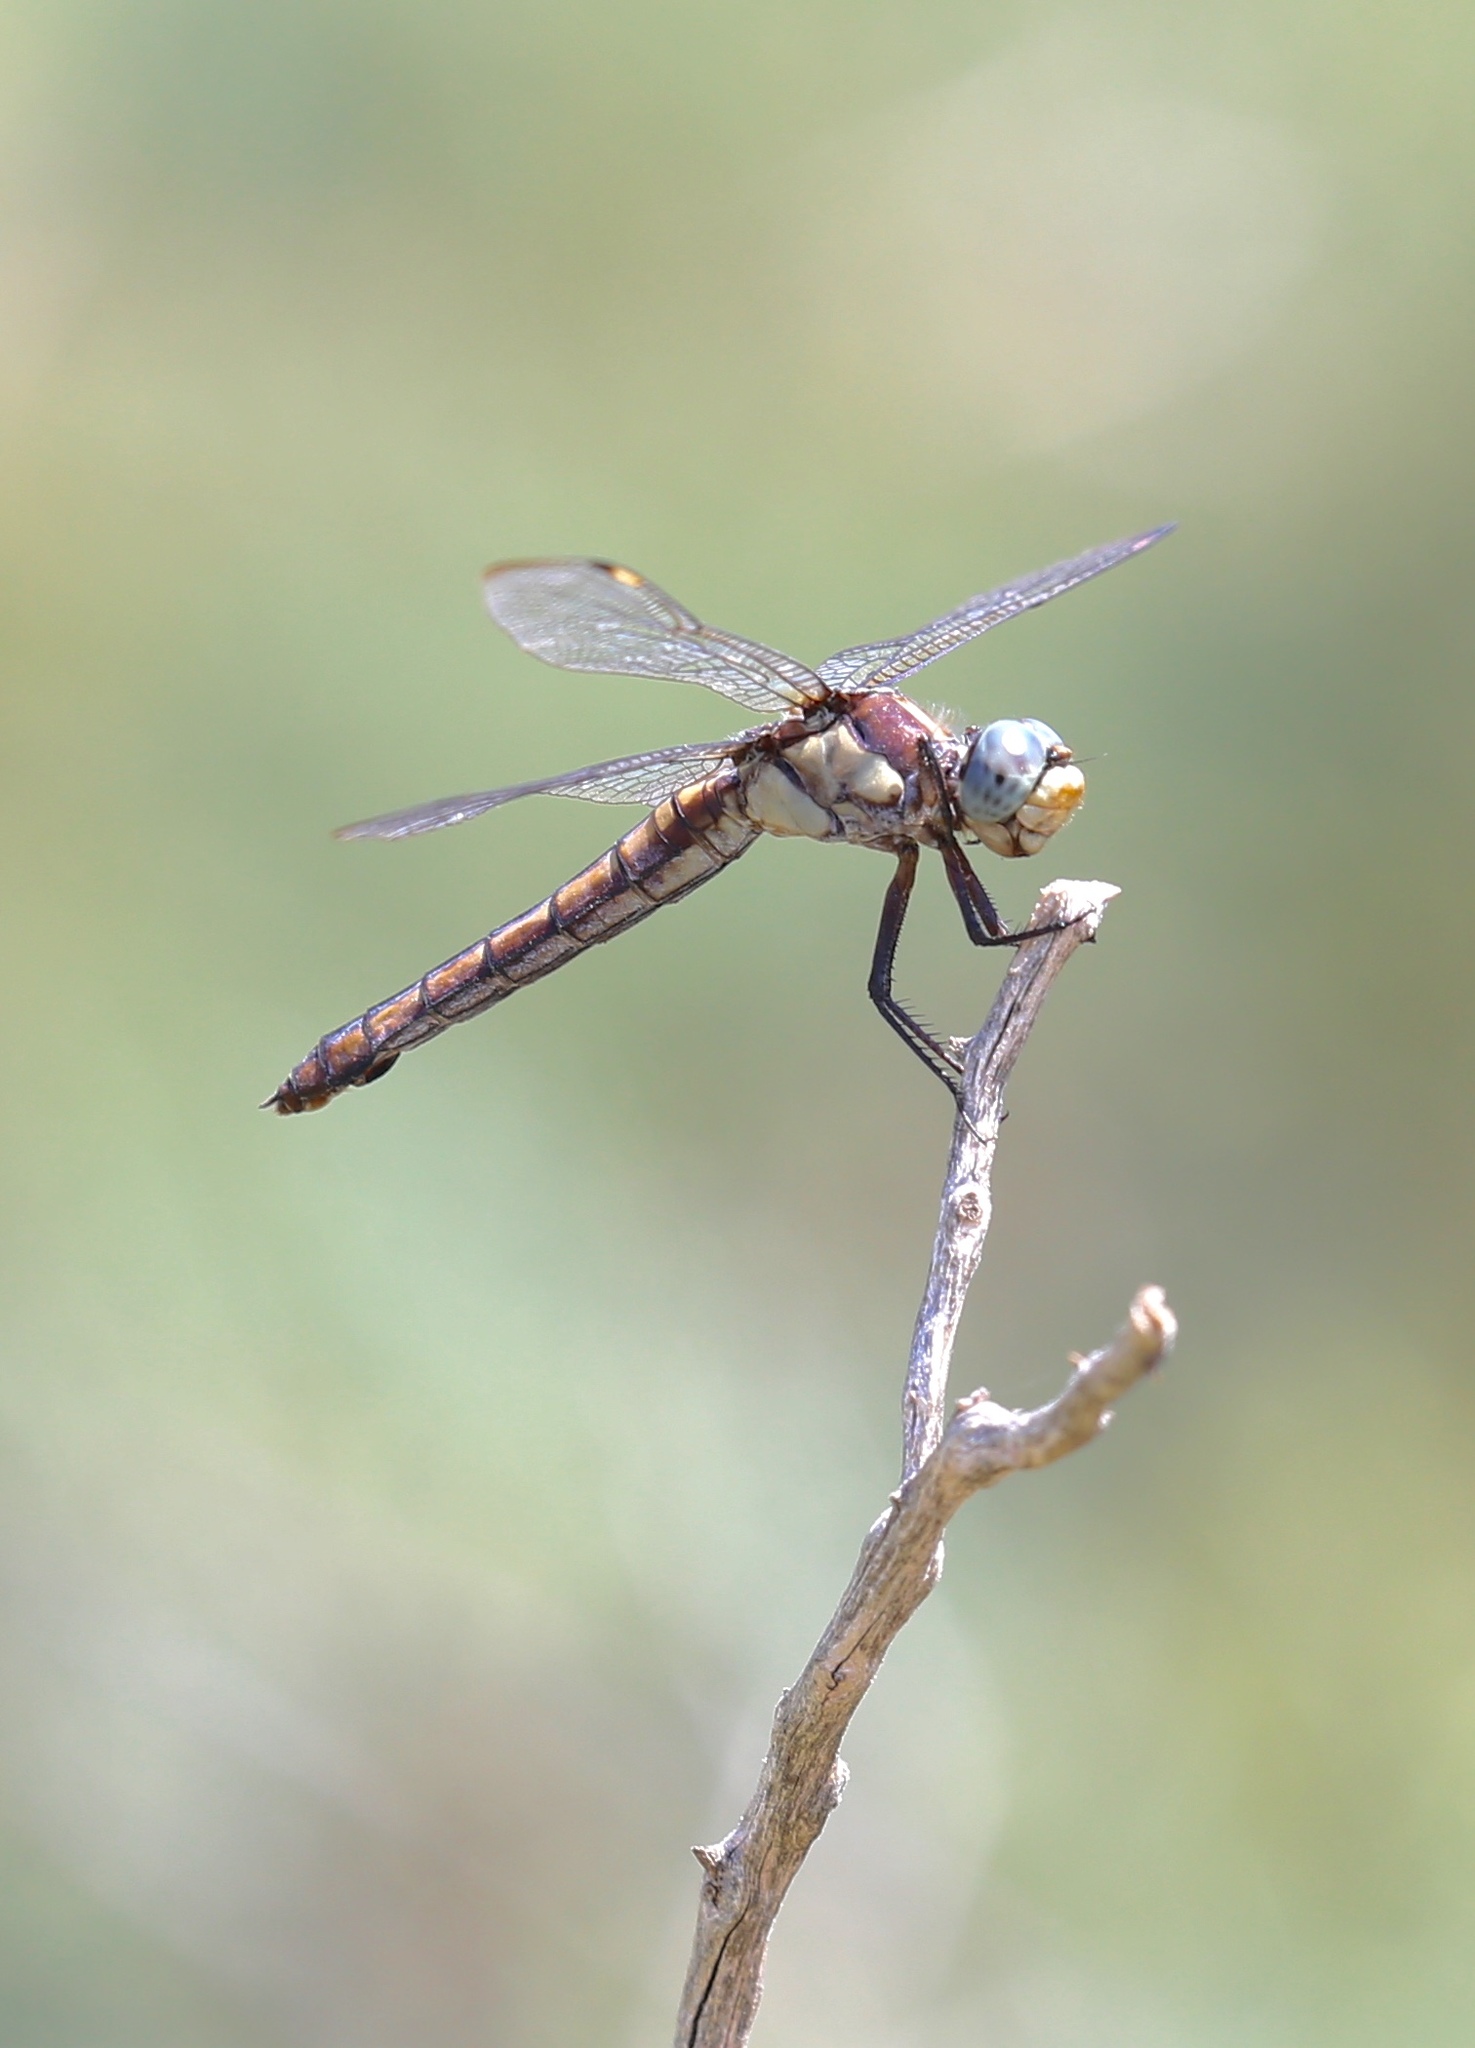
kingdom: Animalia
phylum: Arthropoda
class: Insecta
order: Odonata
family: Libellulidae
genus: Libellula
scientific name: Libellula comanche
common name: Comanche skimmer
